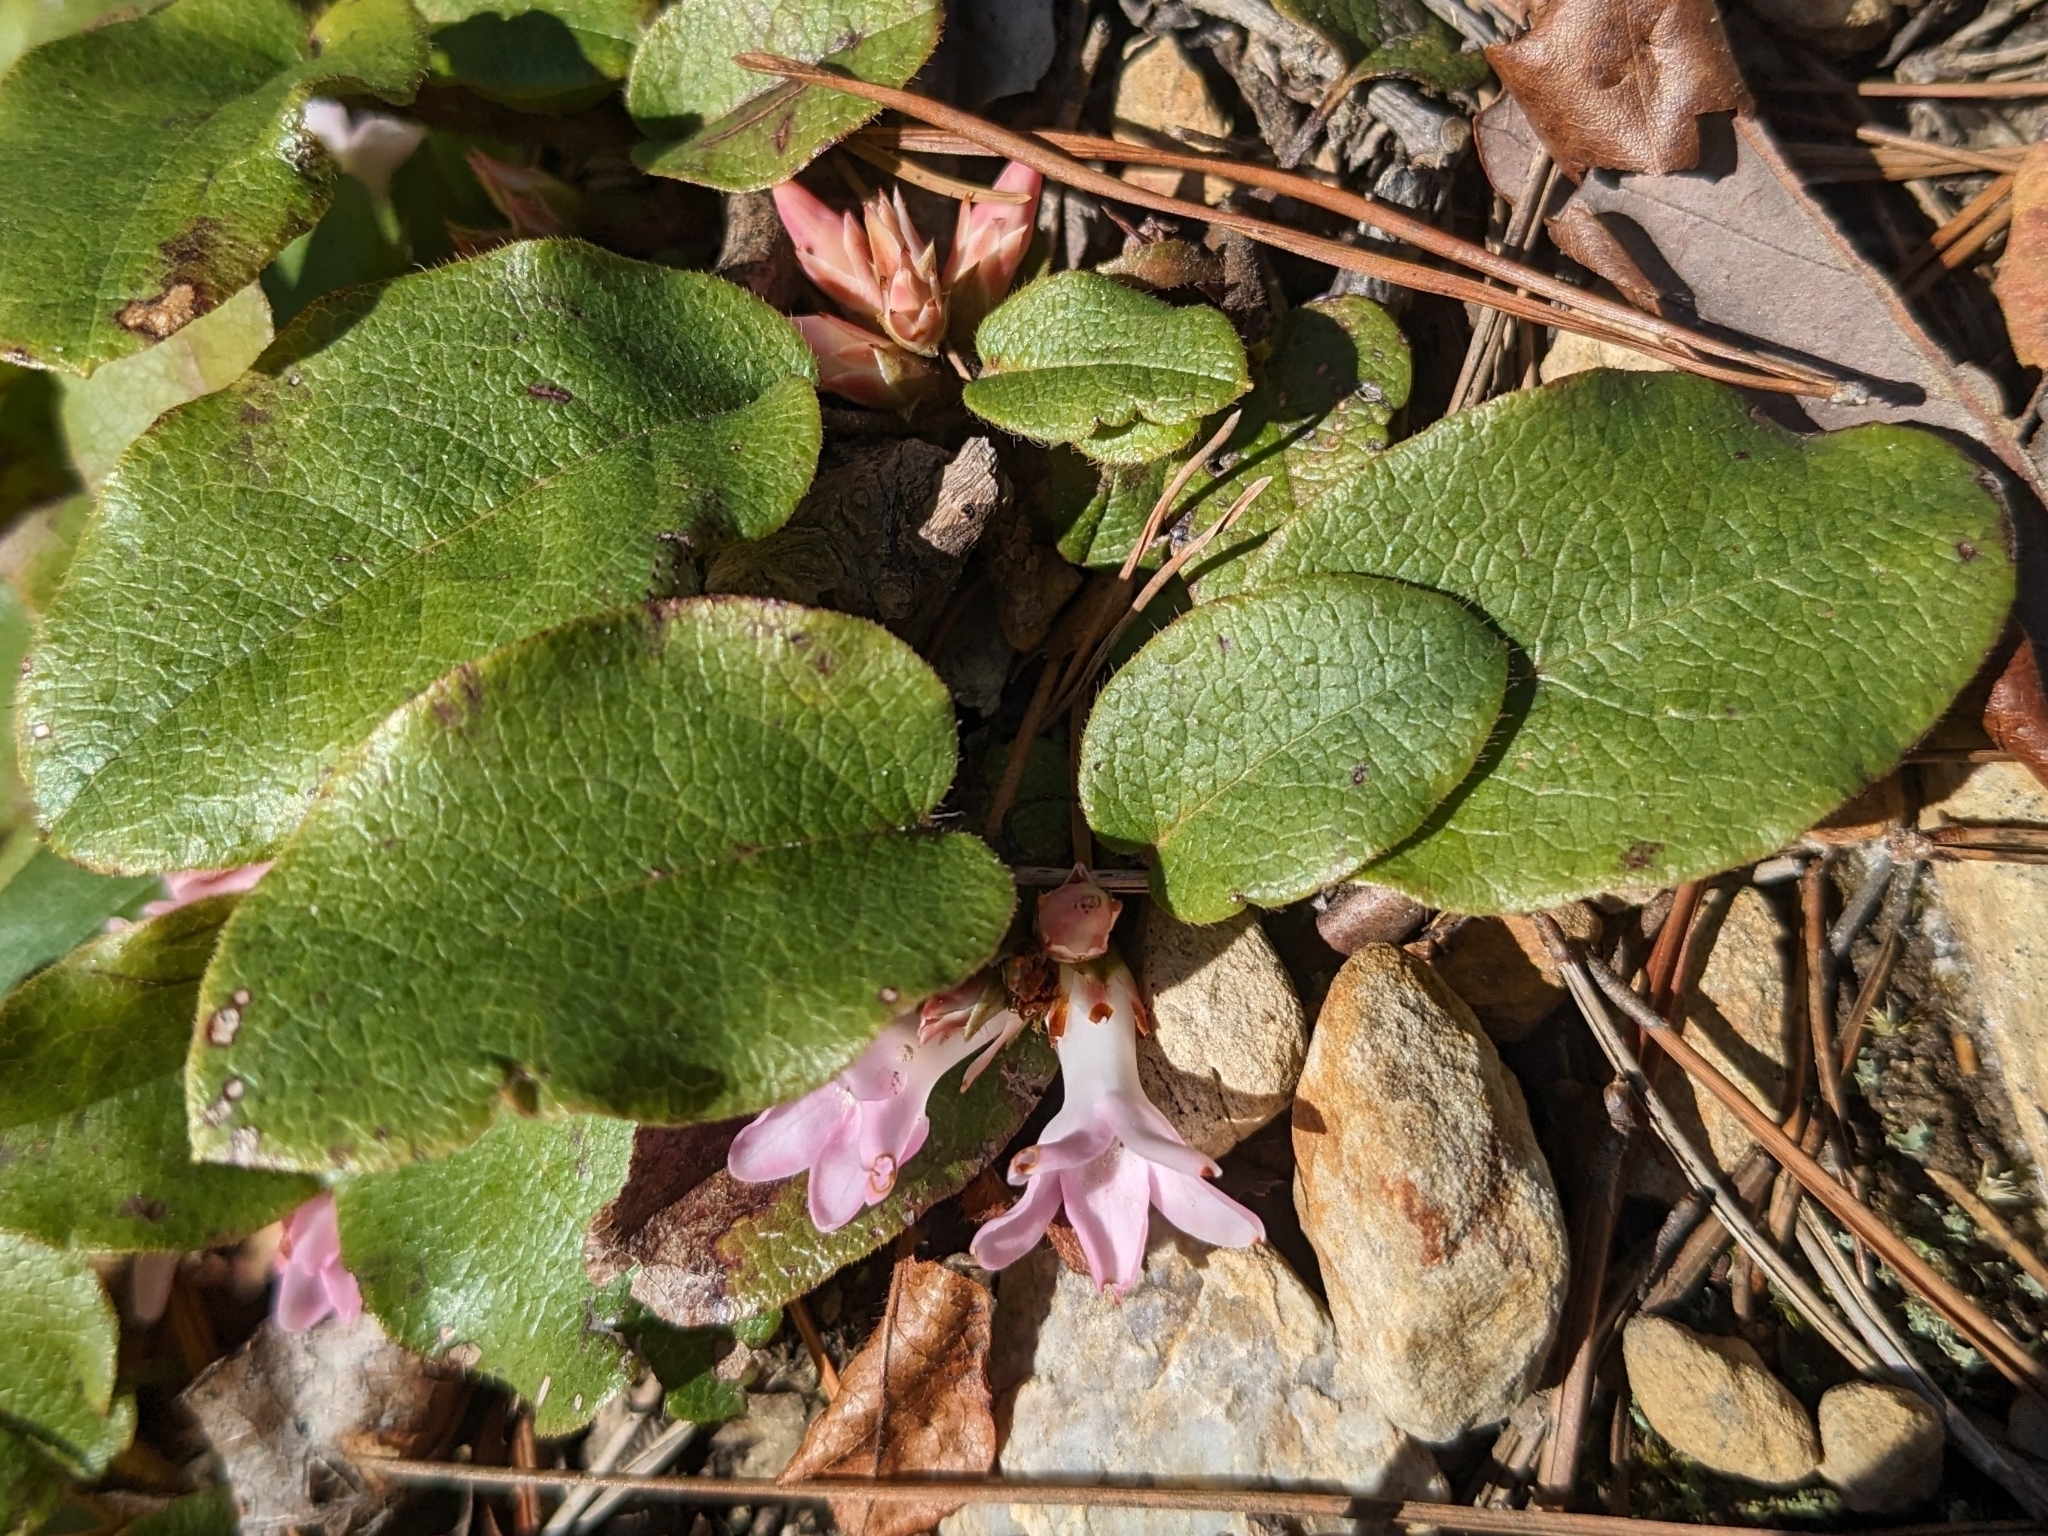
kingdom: Plantae
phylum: Tracheophyta
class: Magnoliopsida
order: Ericales
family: Ericaceae
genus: Epigaea
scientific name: Epigaea repens
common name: Gravelroot
